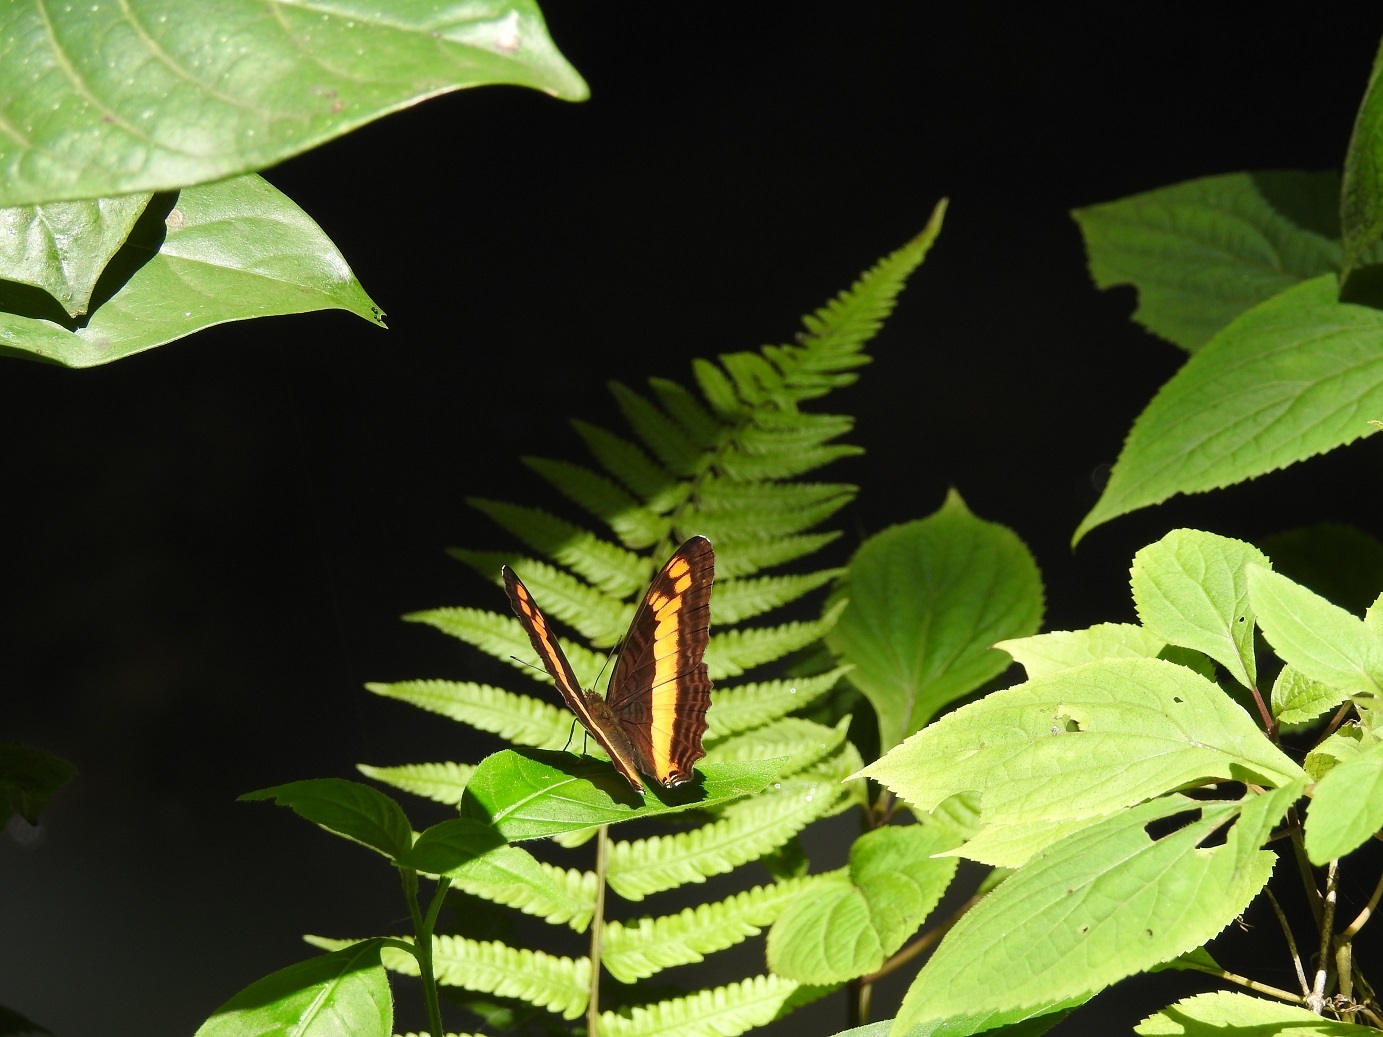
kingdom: Animalia
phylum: Arthropoda
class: Insecta
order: Lepidoptera
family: Nymphalidae
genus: Limenitis
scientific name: Limenitis
